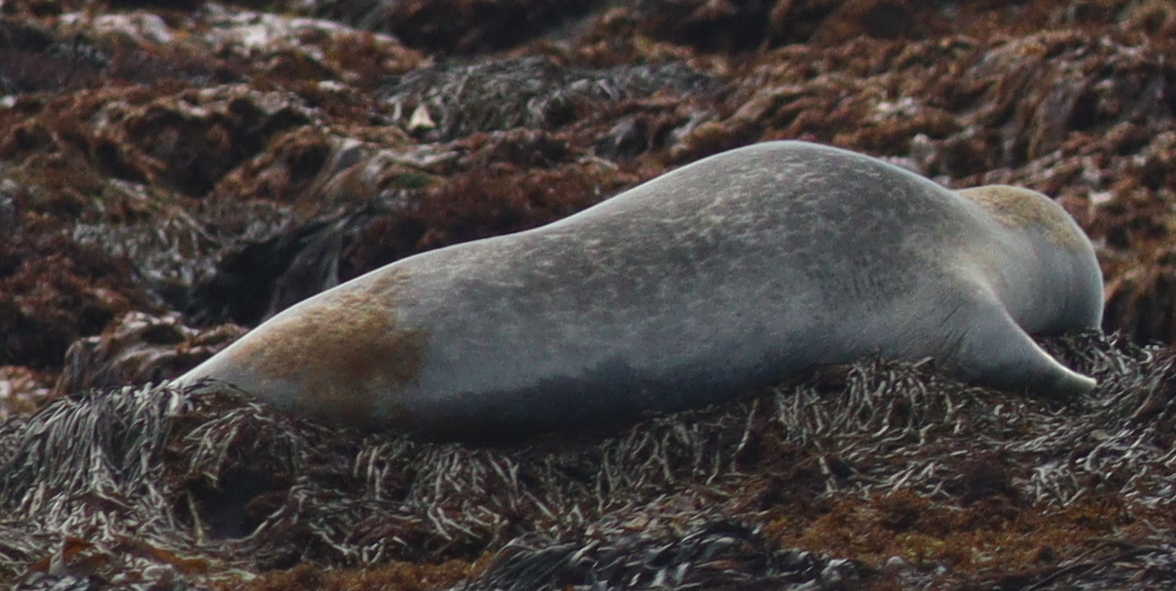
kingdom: Animalia
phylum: Chordata
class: Mammalia
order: Carnivora
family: Phocidae
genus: Phoca
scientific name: Phoca vitulina
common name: Harbor seal
